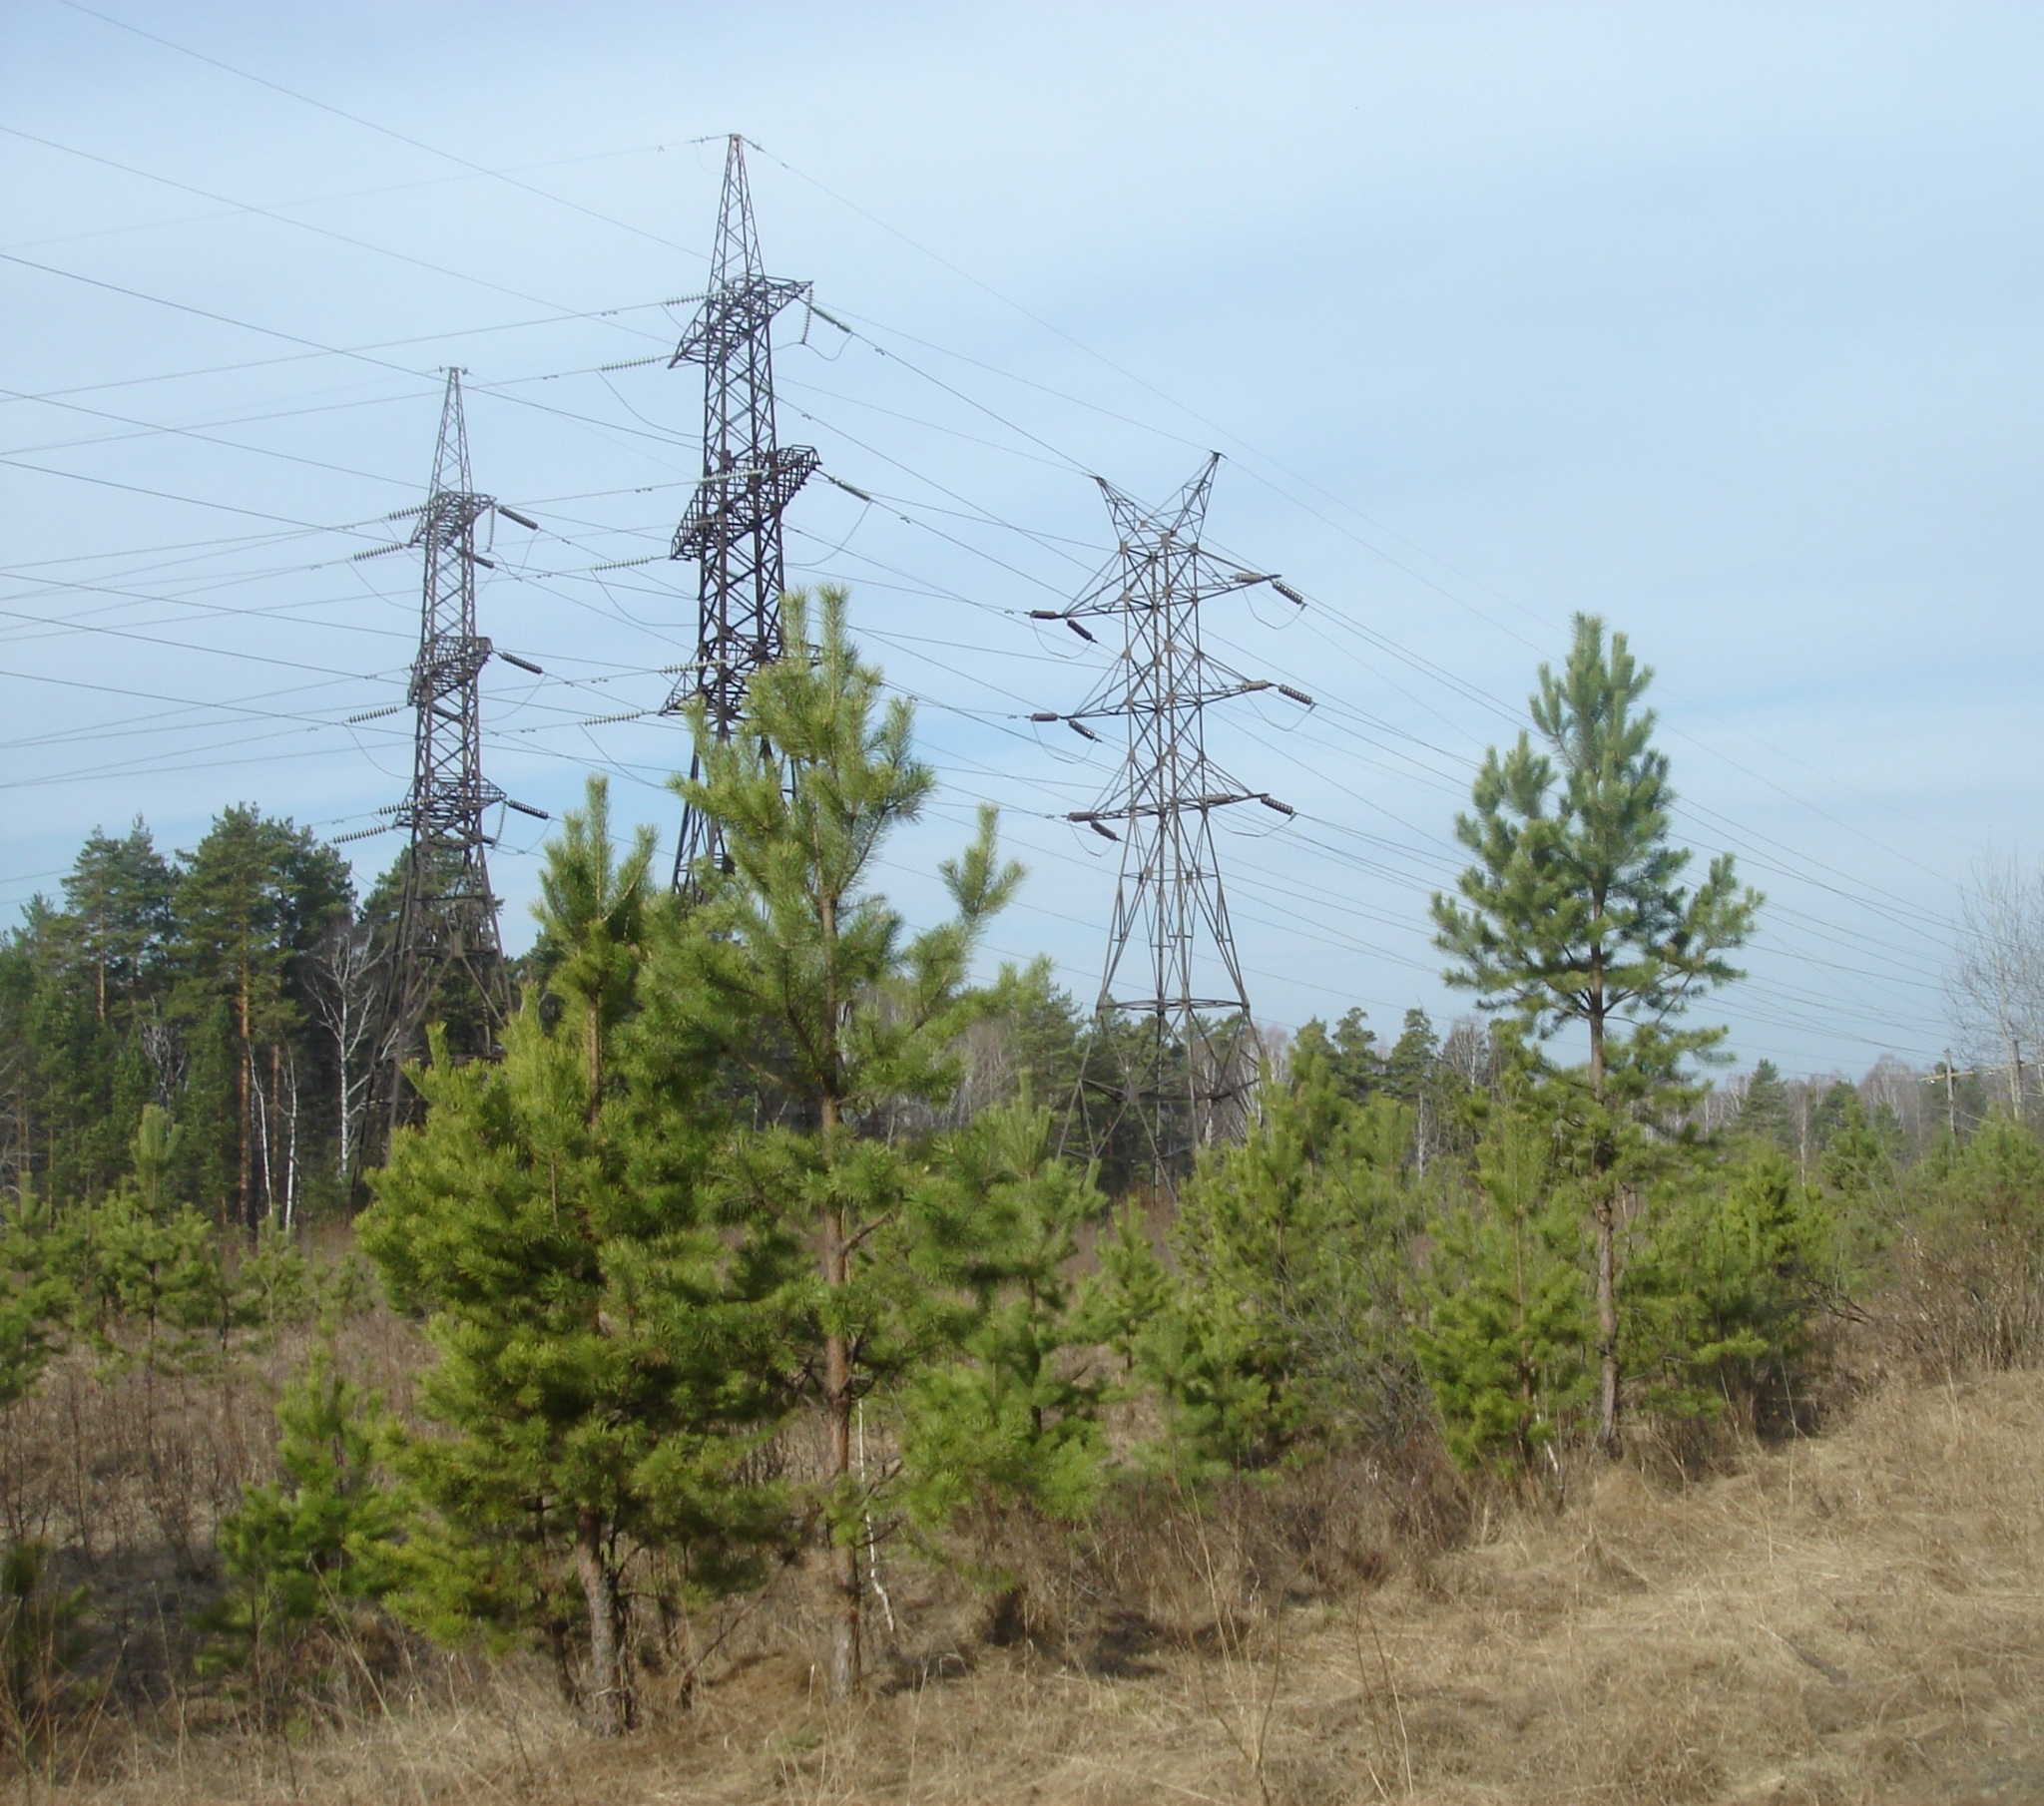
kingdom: Plantae
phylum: Tracheophyta
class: Pinopsida
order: Pinales
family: Pinaceae
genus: Pinus
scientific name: Pinus sylvestris
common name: Scots pine
